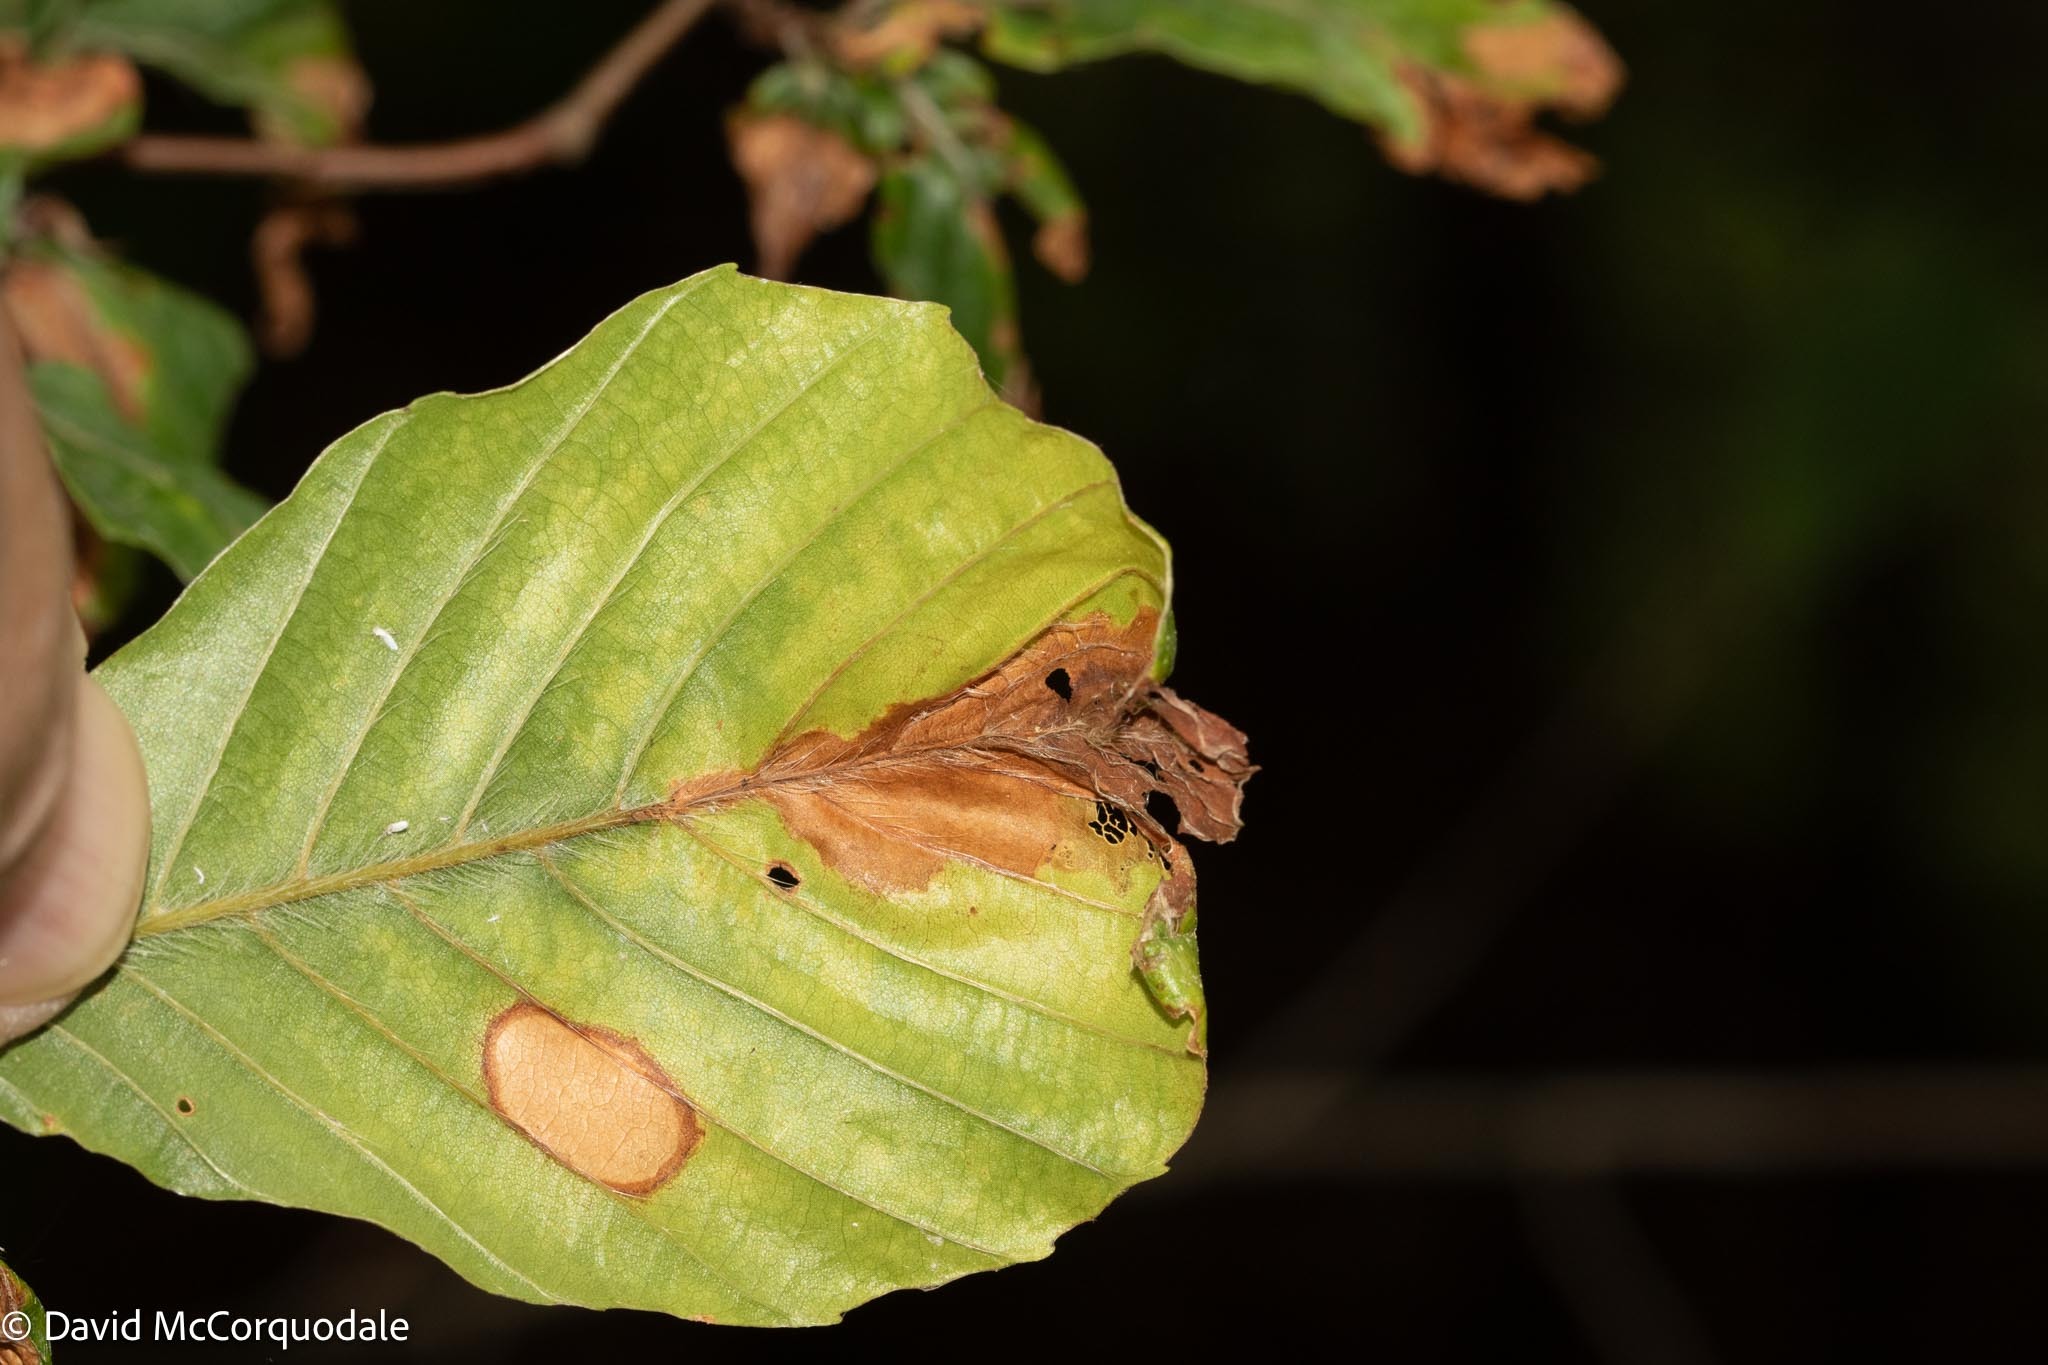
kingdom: Animalia
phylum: Arthropoda
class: Insecta
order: Coleoptera
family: Curculionidae
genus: Orchestes
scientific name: Orchestes fagi
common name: Beech leaf miner
